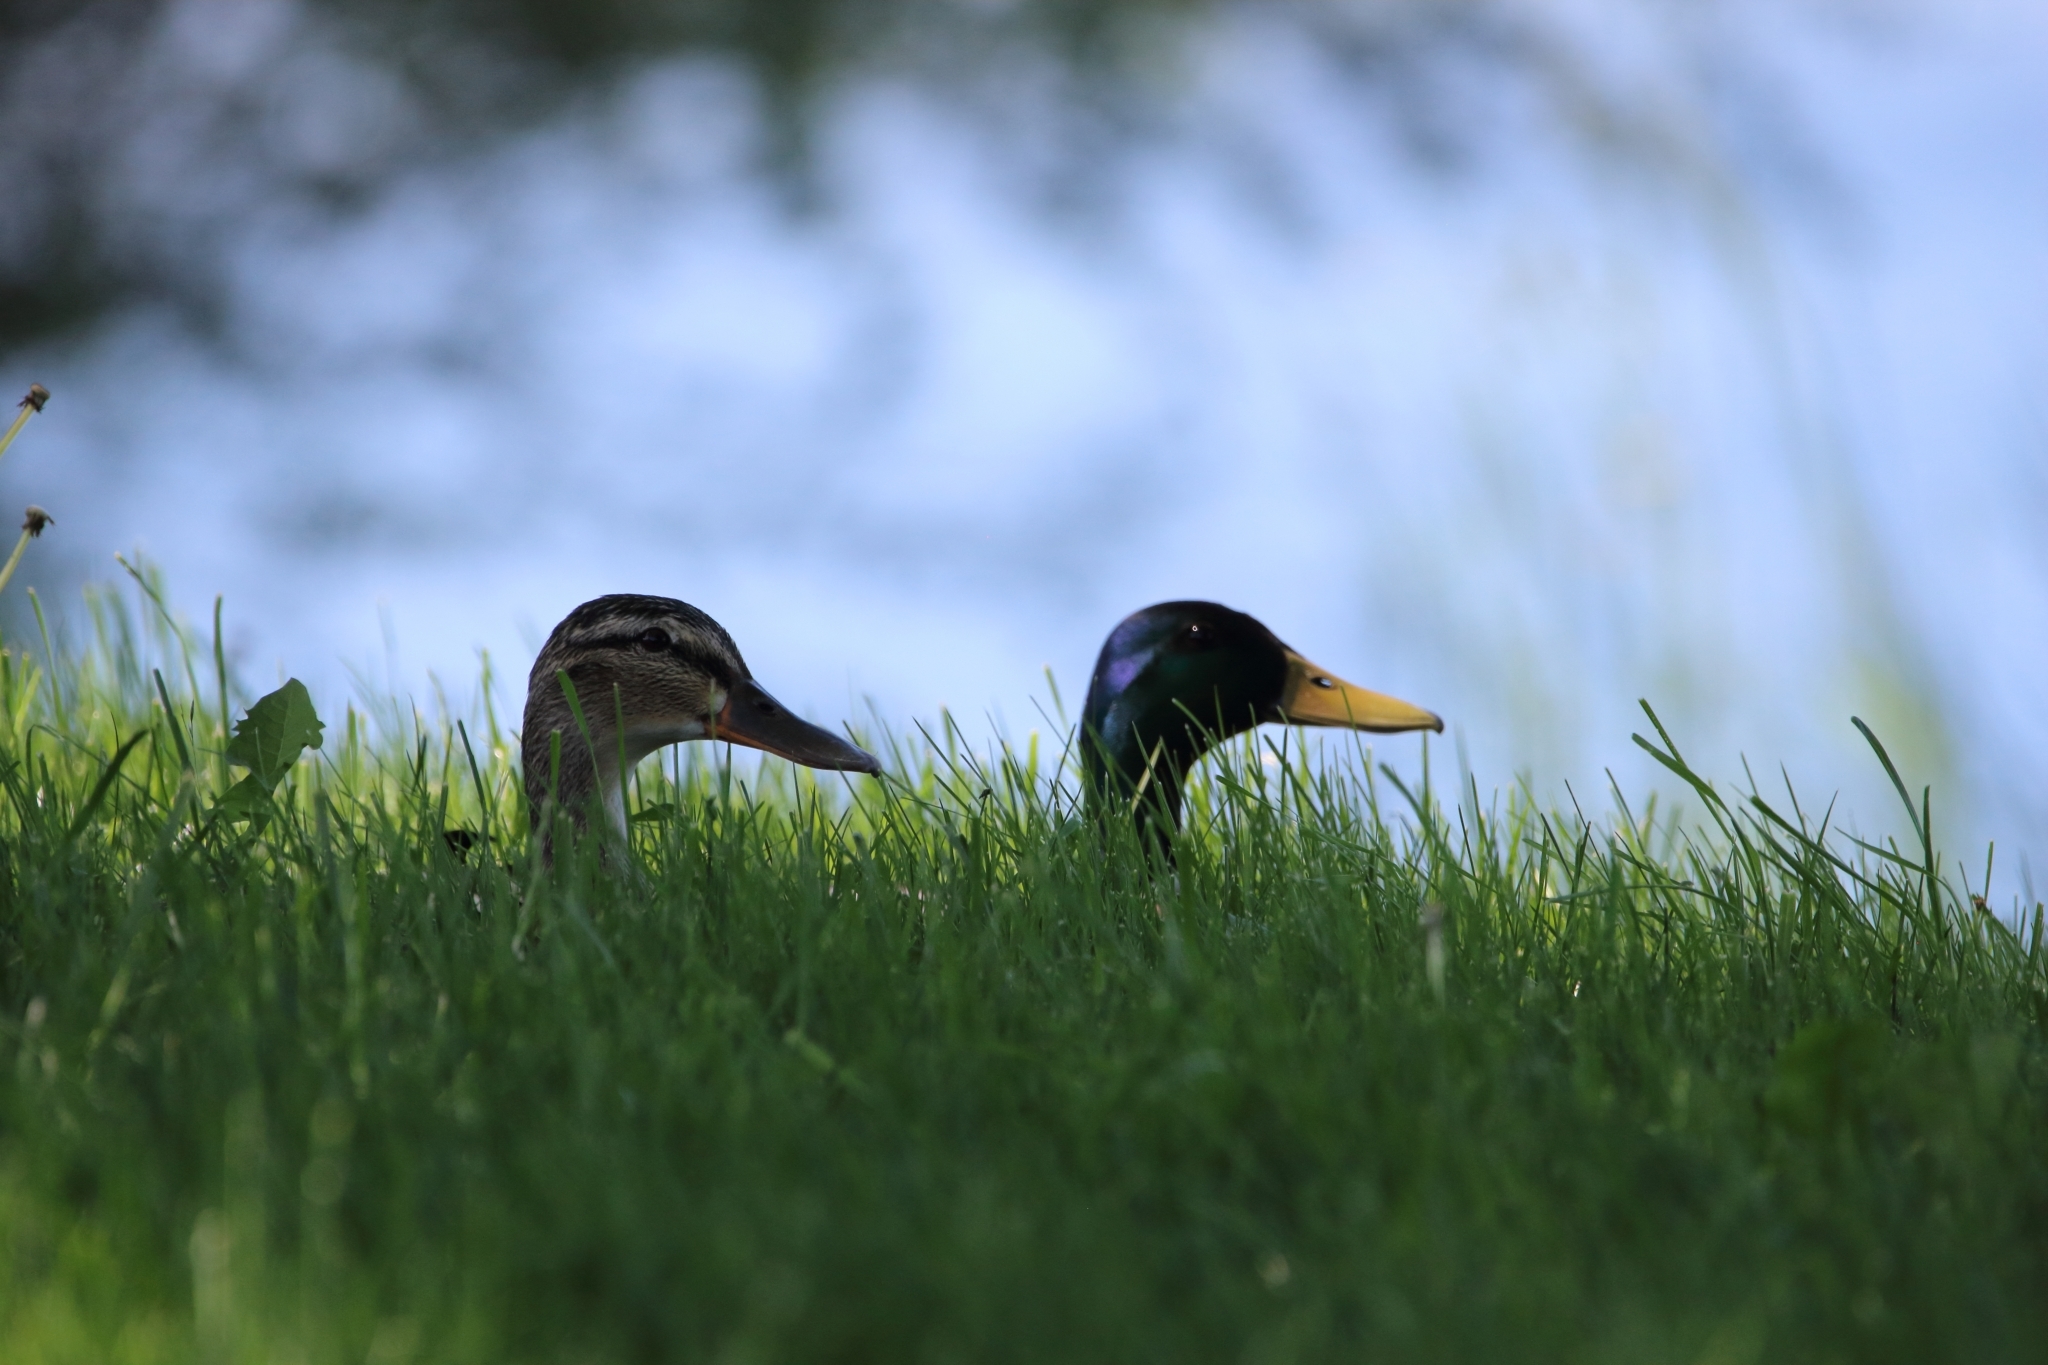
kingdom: Animalia
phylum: Chordata
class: Aves
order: Anseriformes
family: Anatidae
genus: Anas
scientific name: Anas platyrhynchos
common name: Mallard
